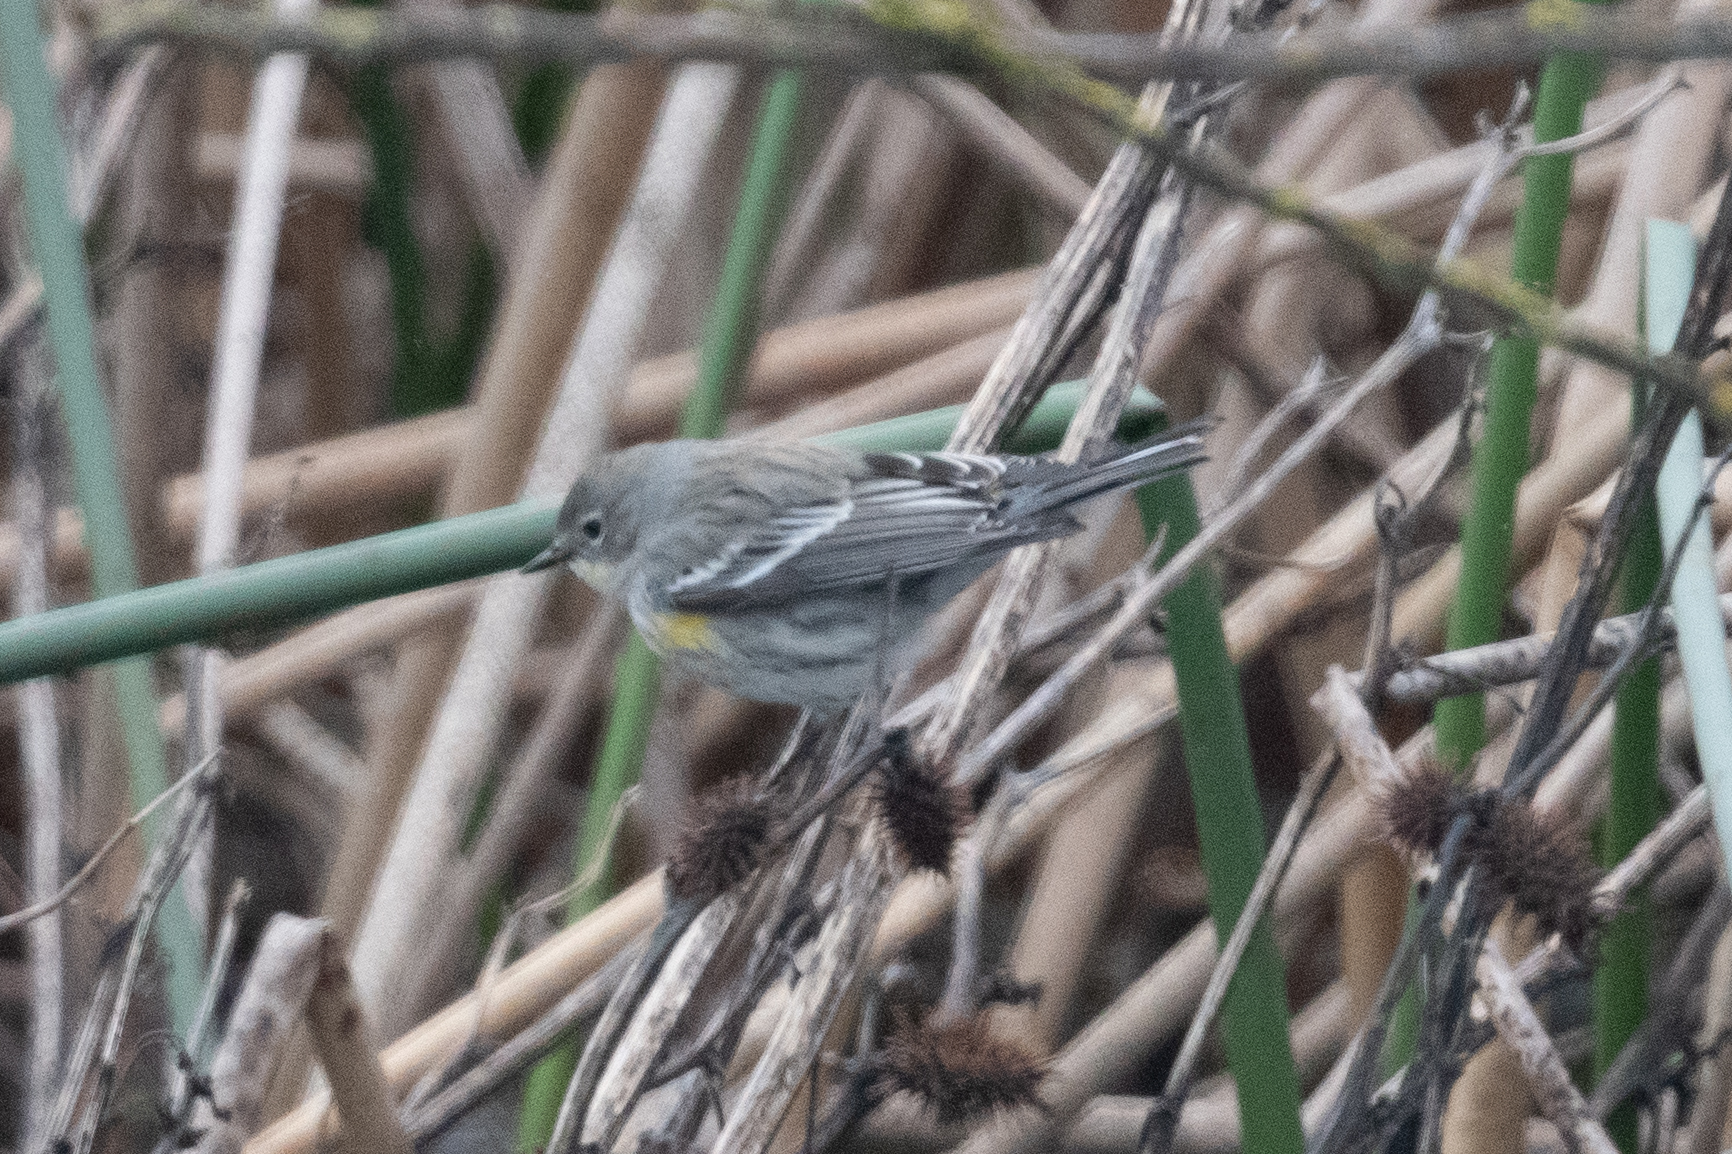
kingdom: Animalia
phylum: Chordata
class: Aves
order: Passeriformes
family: Parulidae
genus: Setophaga
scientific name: Setophaga coronata
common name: Myrtle warbler
